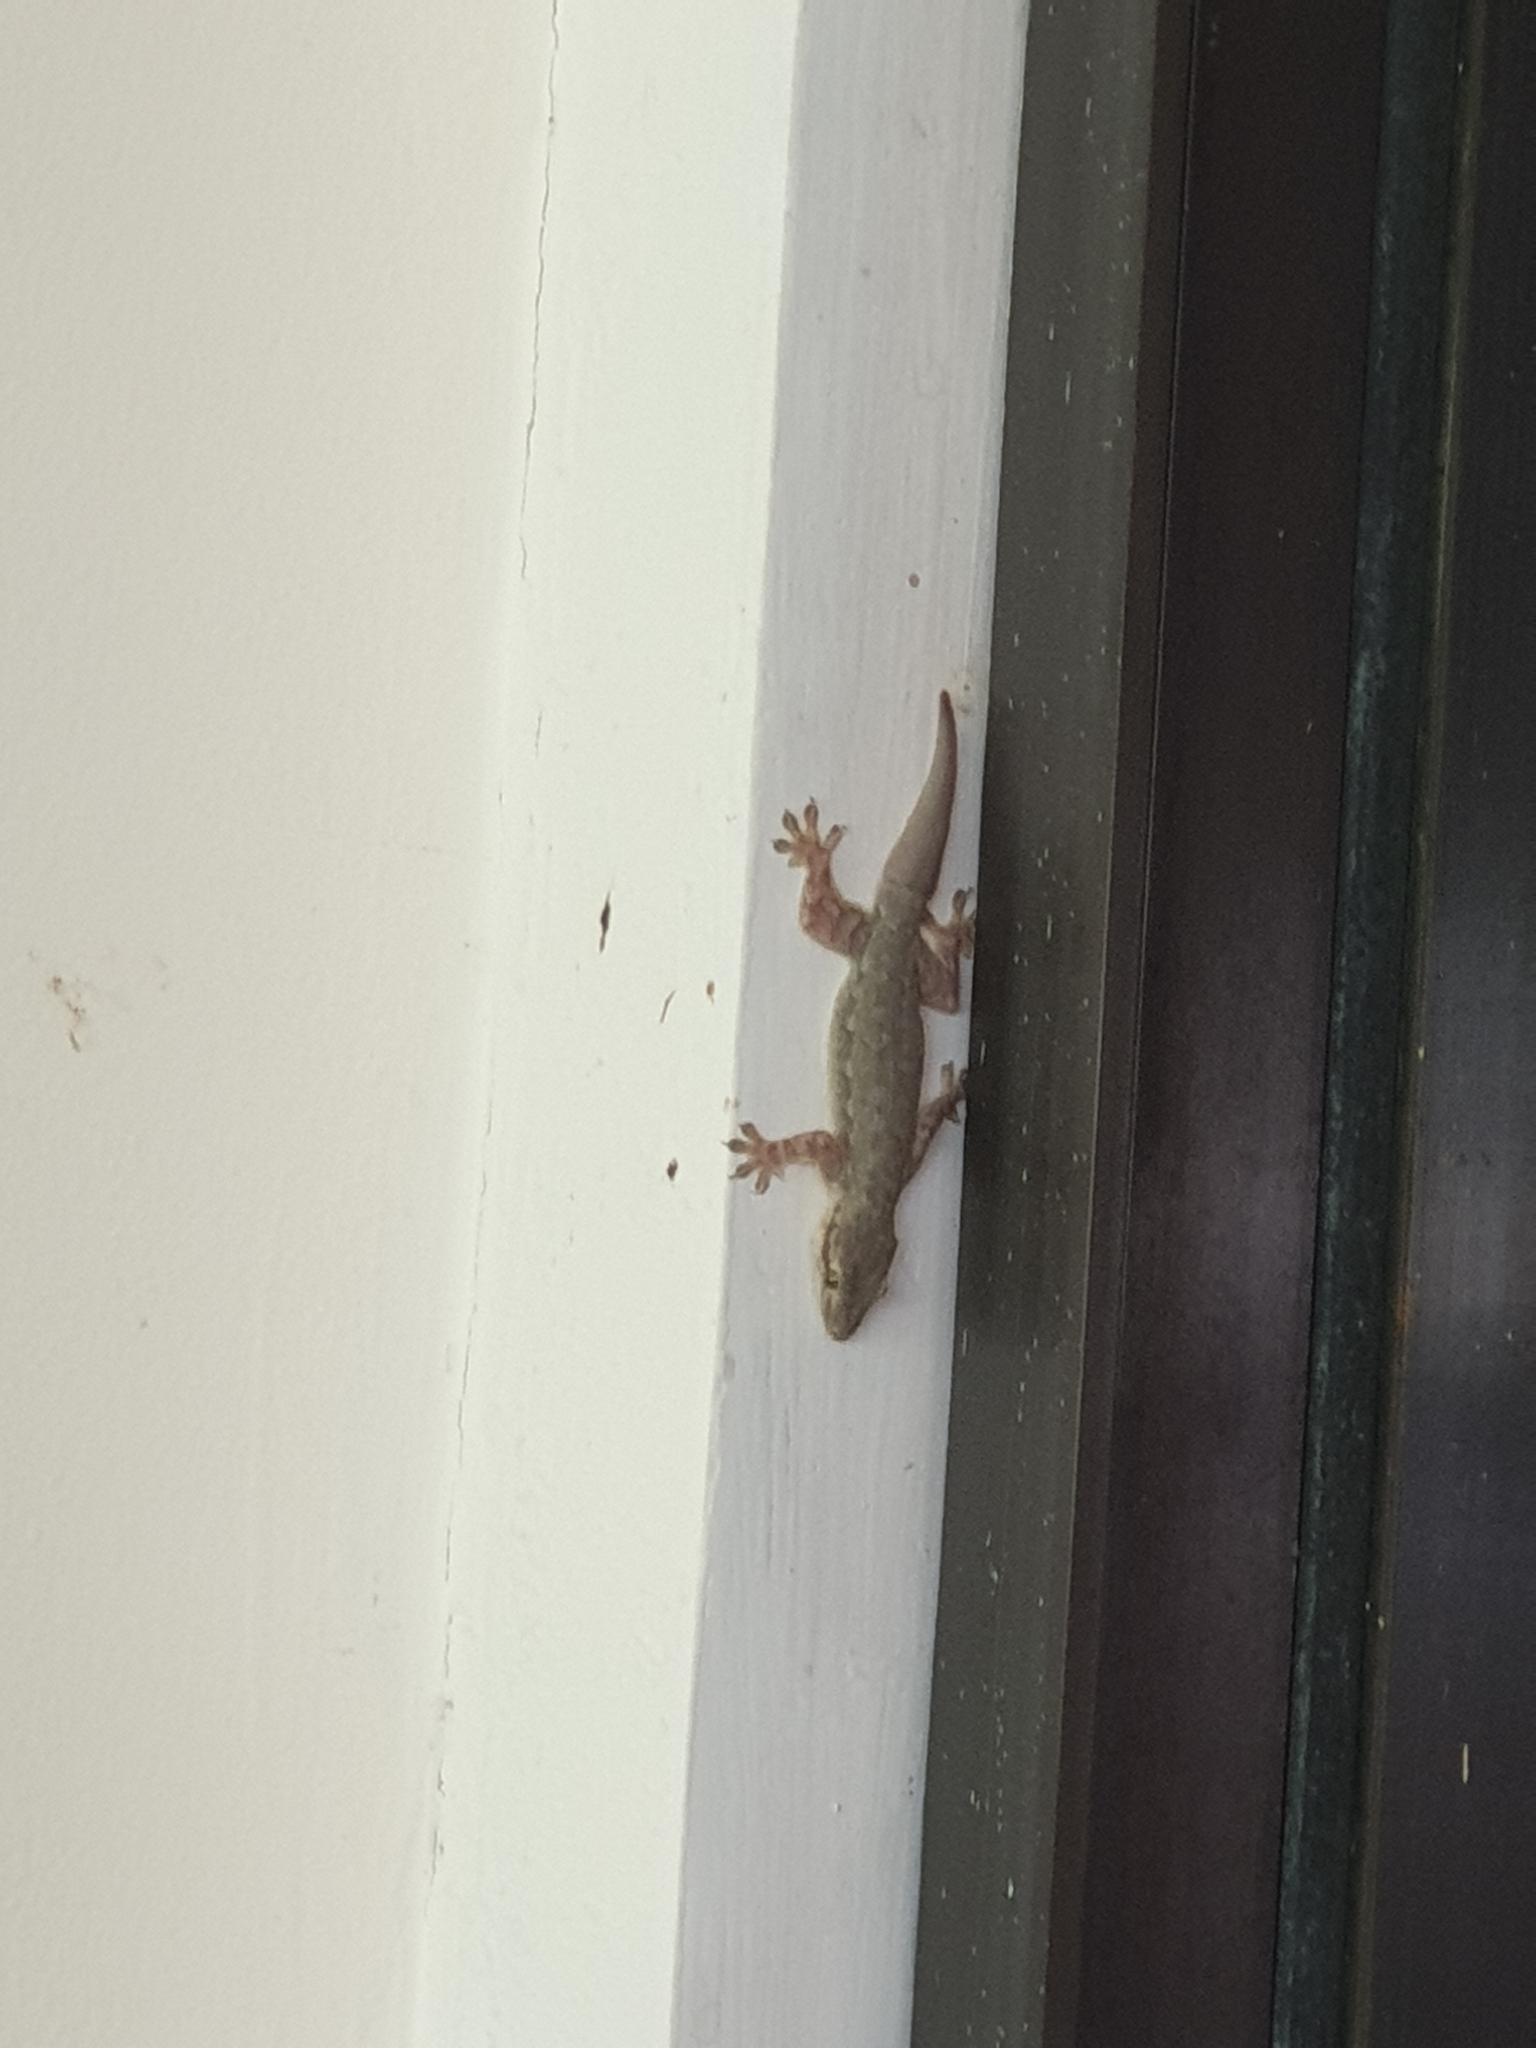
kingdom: Animalia
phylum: Chordata
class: Squamata
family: Gekkonidae
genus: Hemidactylus
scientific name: Hemidactylus platyurus
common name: Flat-tailed house gecko
